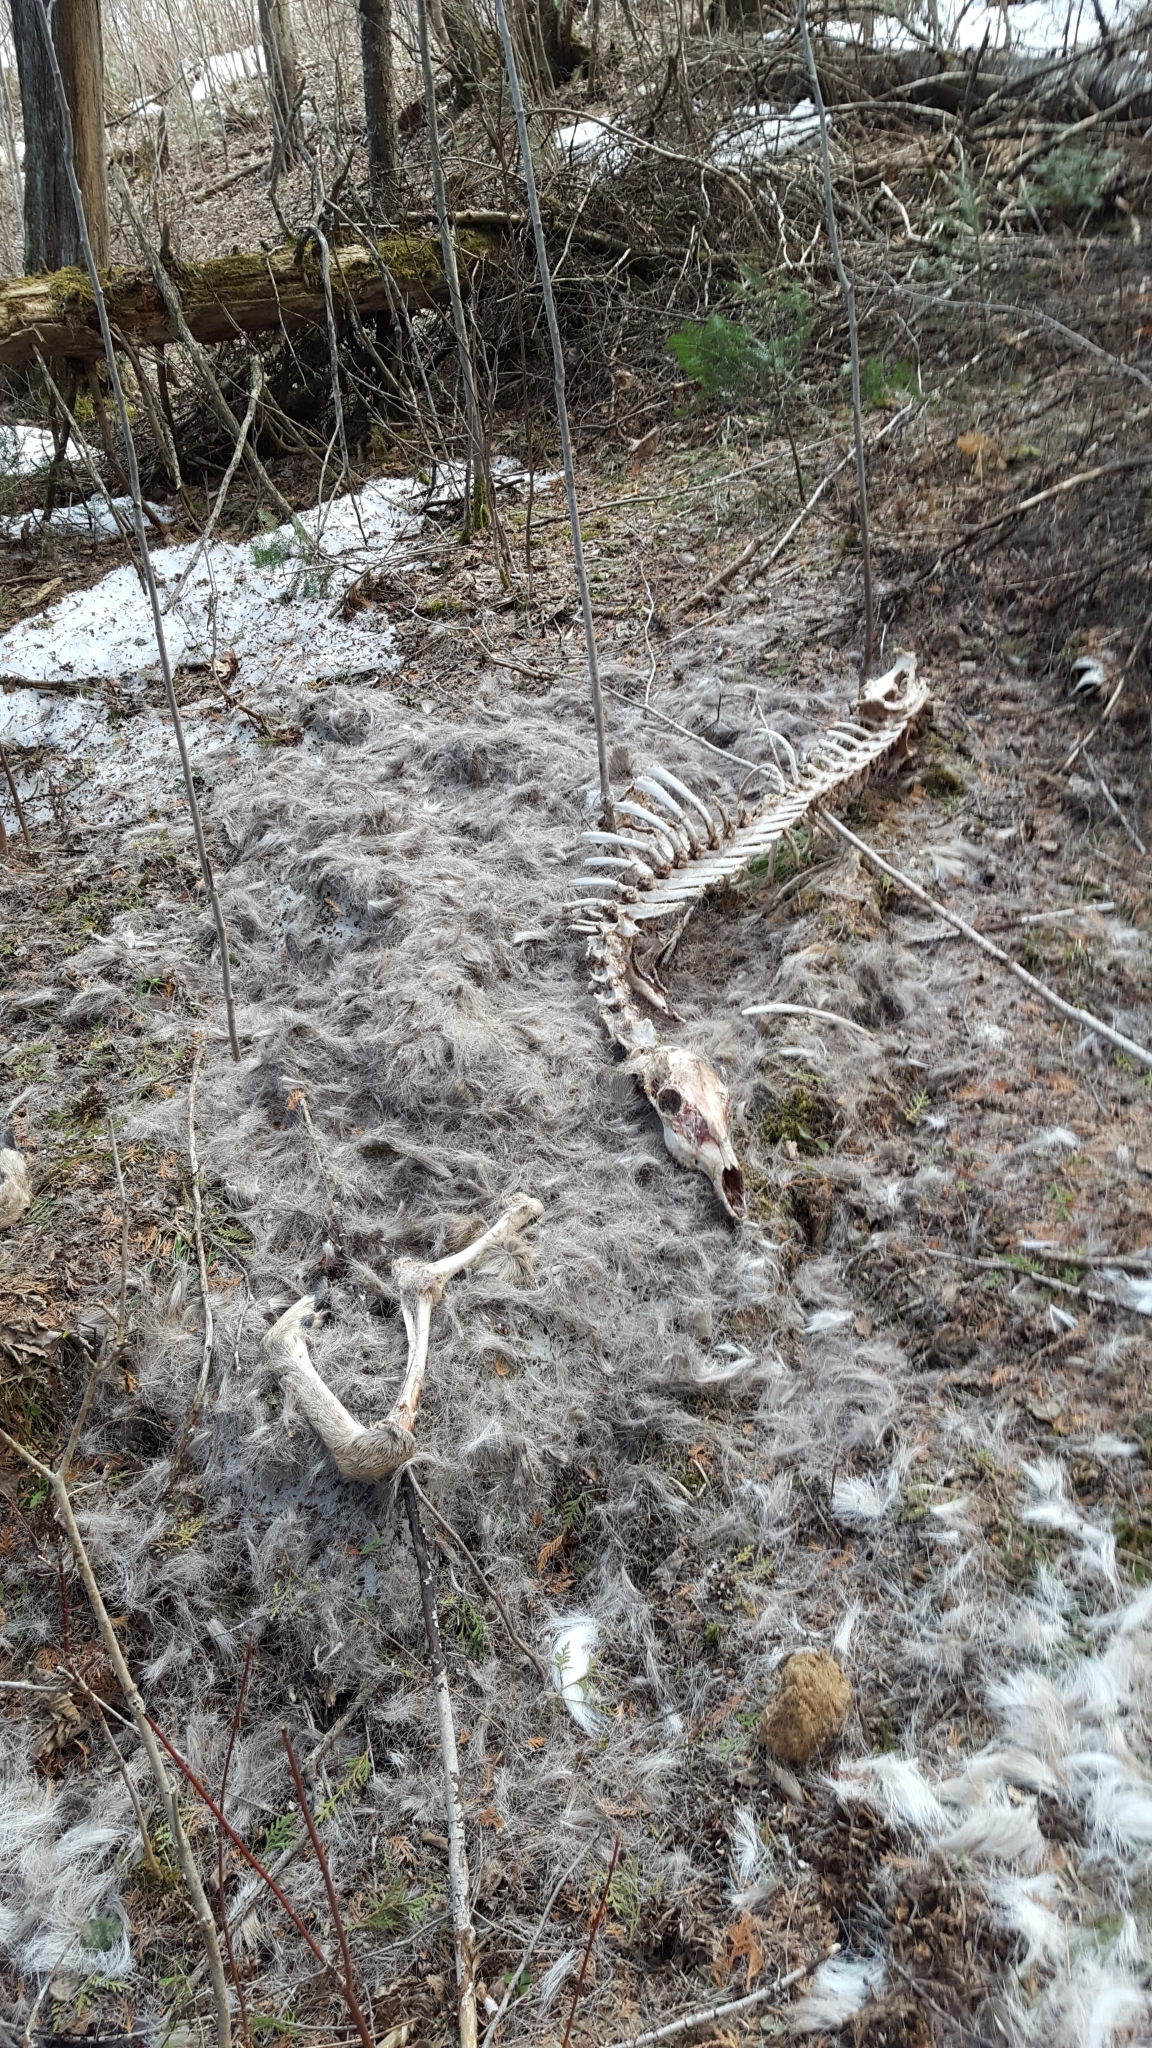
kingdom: Animalia
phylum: Chordata
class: Mammalia
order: Artiodactyla
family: Cervidae
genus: Odocoileus
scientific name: Odocoileus virginianus
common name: White-tailed deer
